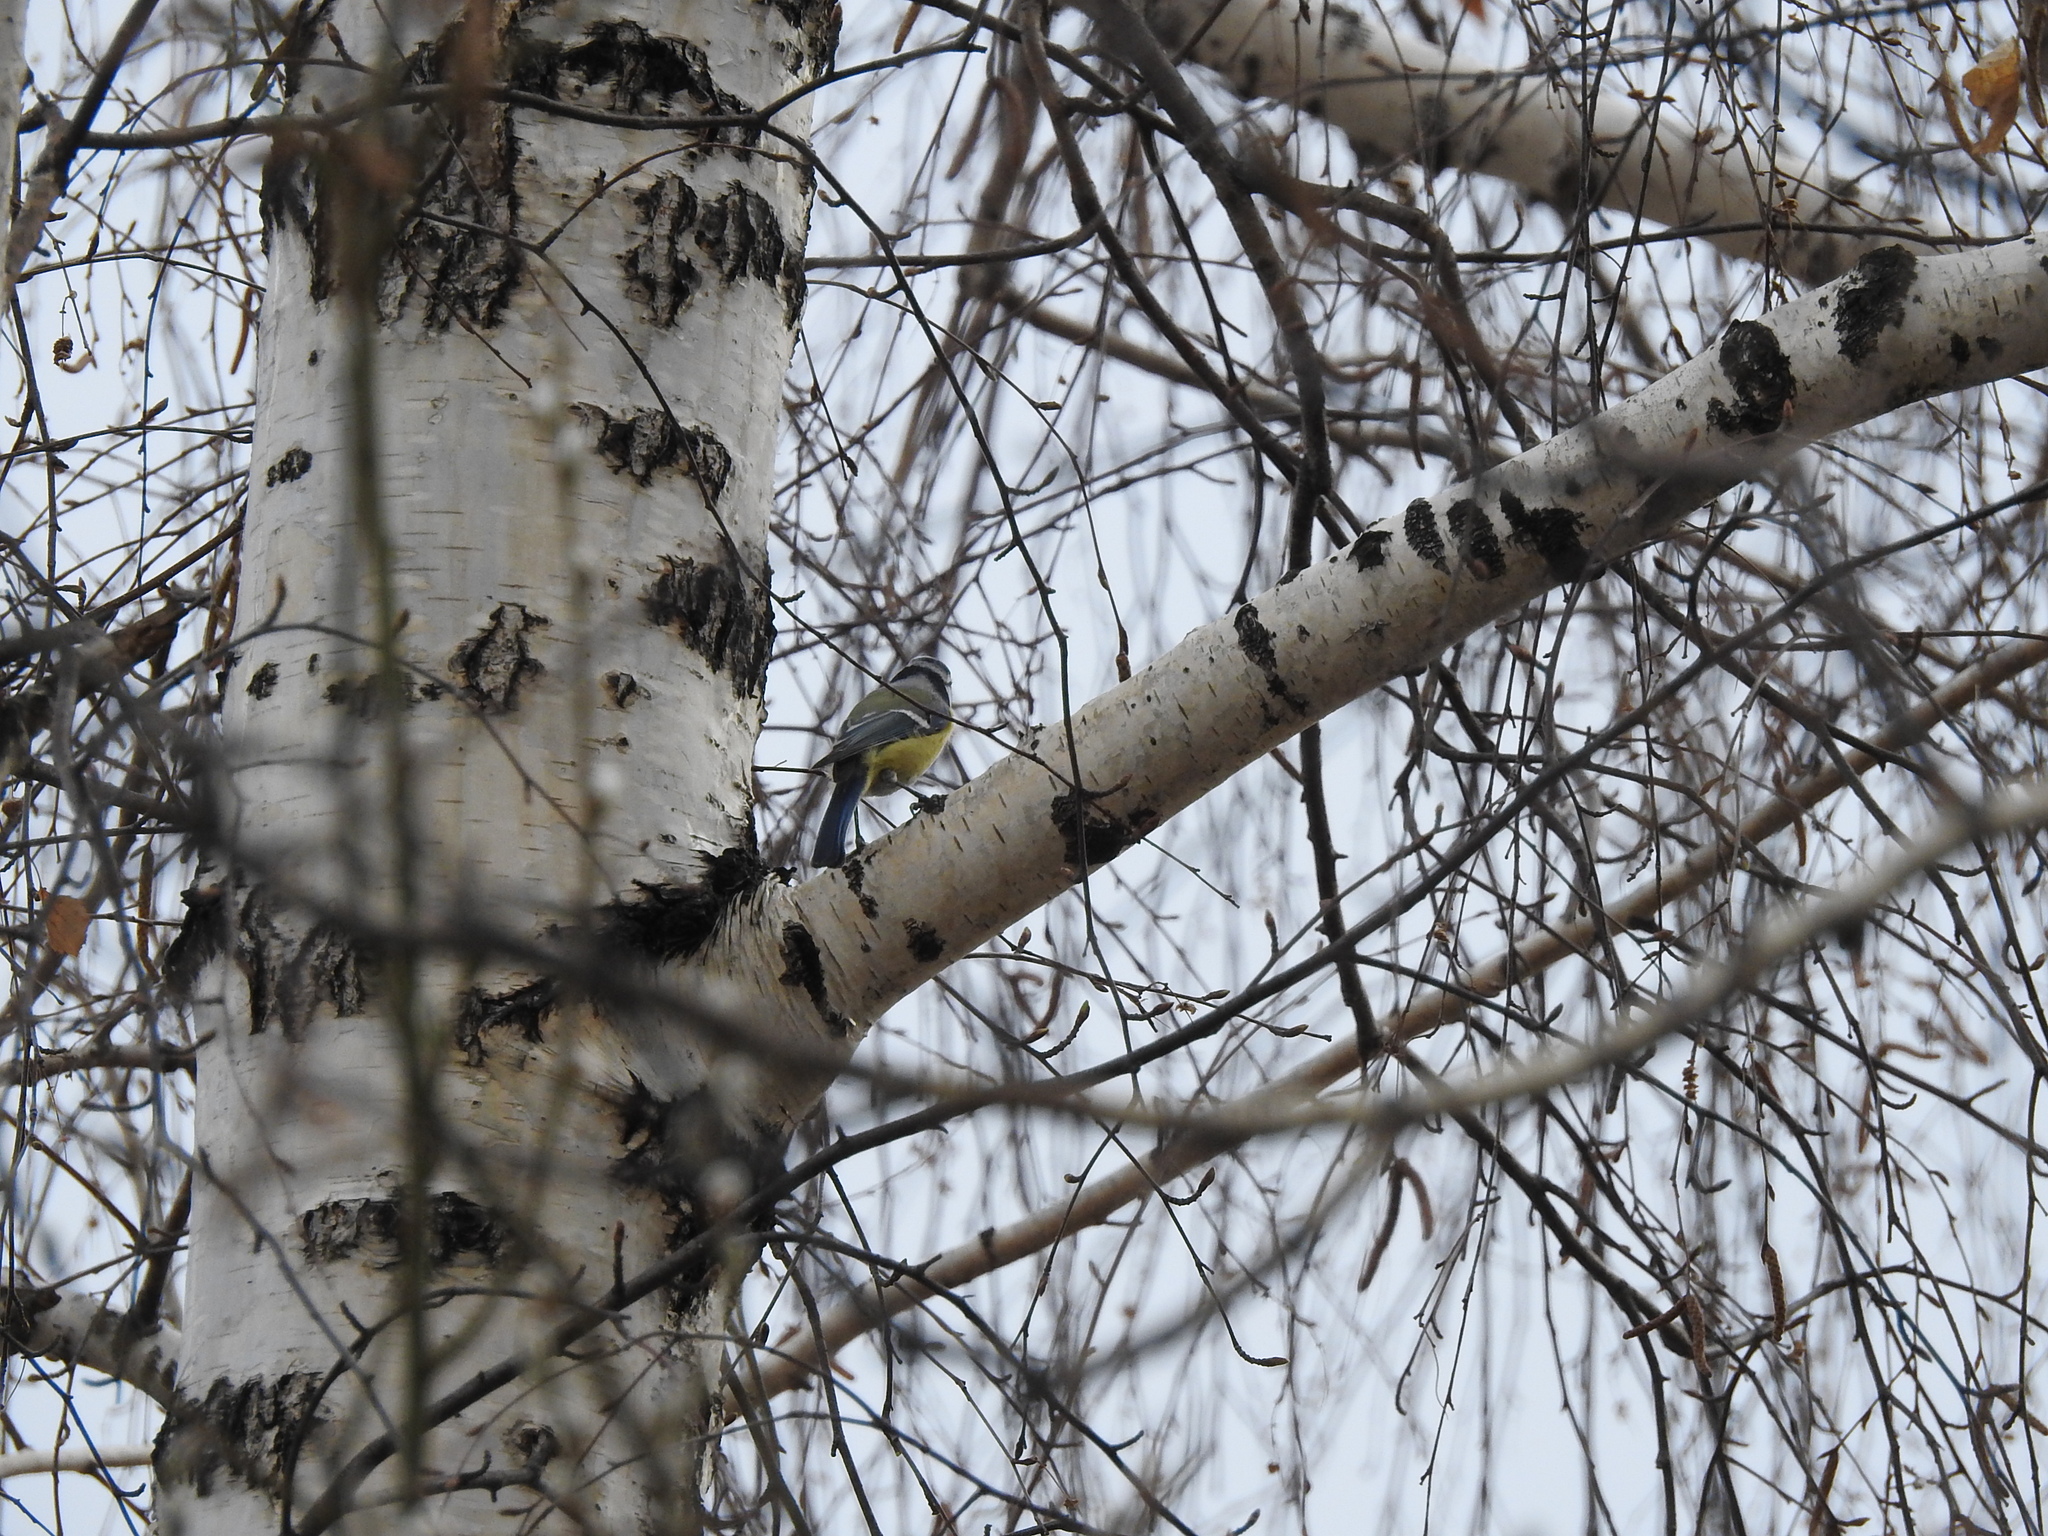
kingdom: Animalia
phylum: Chordata
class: Aves
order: Passeriformes
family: Paridae
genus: Cyanistes
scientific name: Cyanistes caeruleus
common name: Eurasian blue tit
